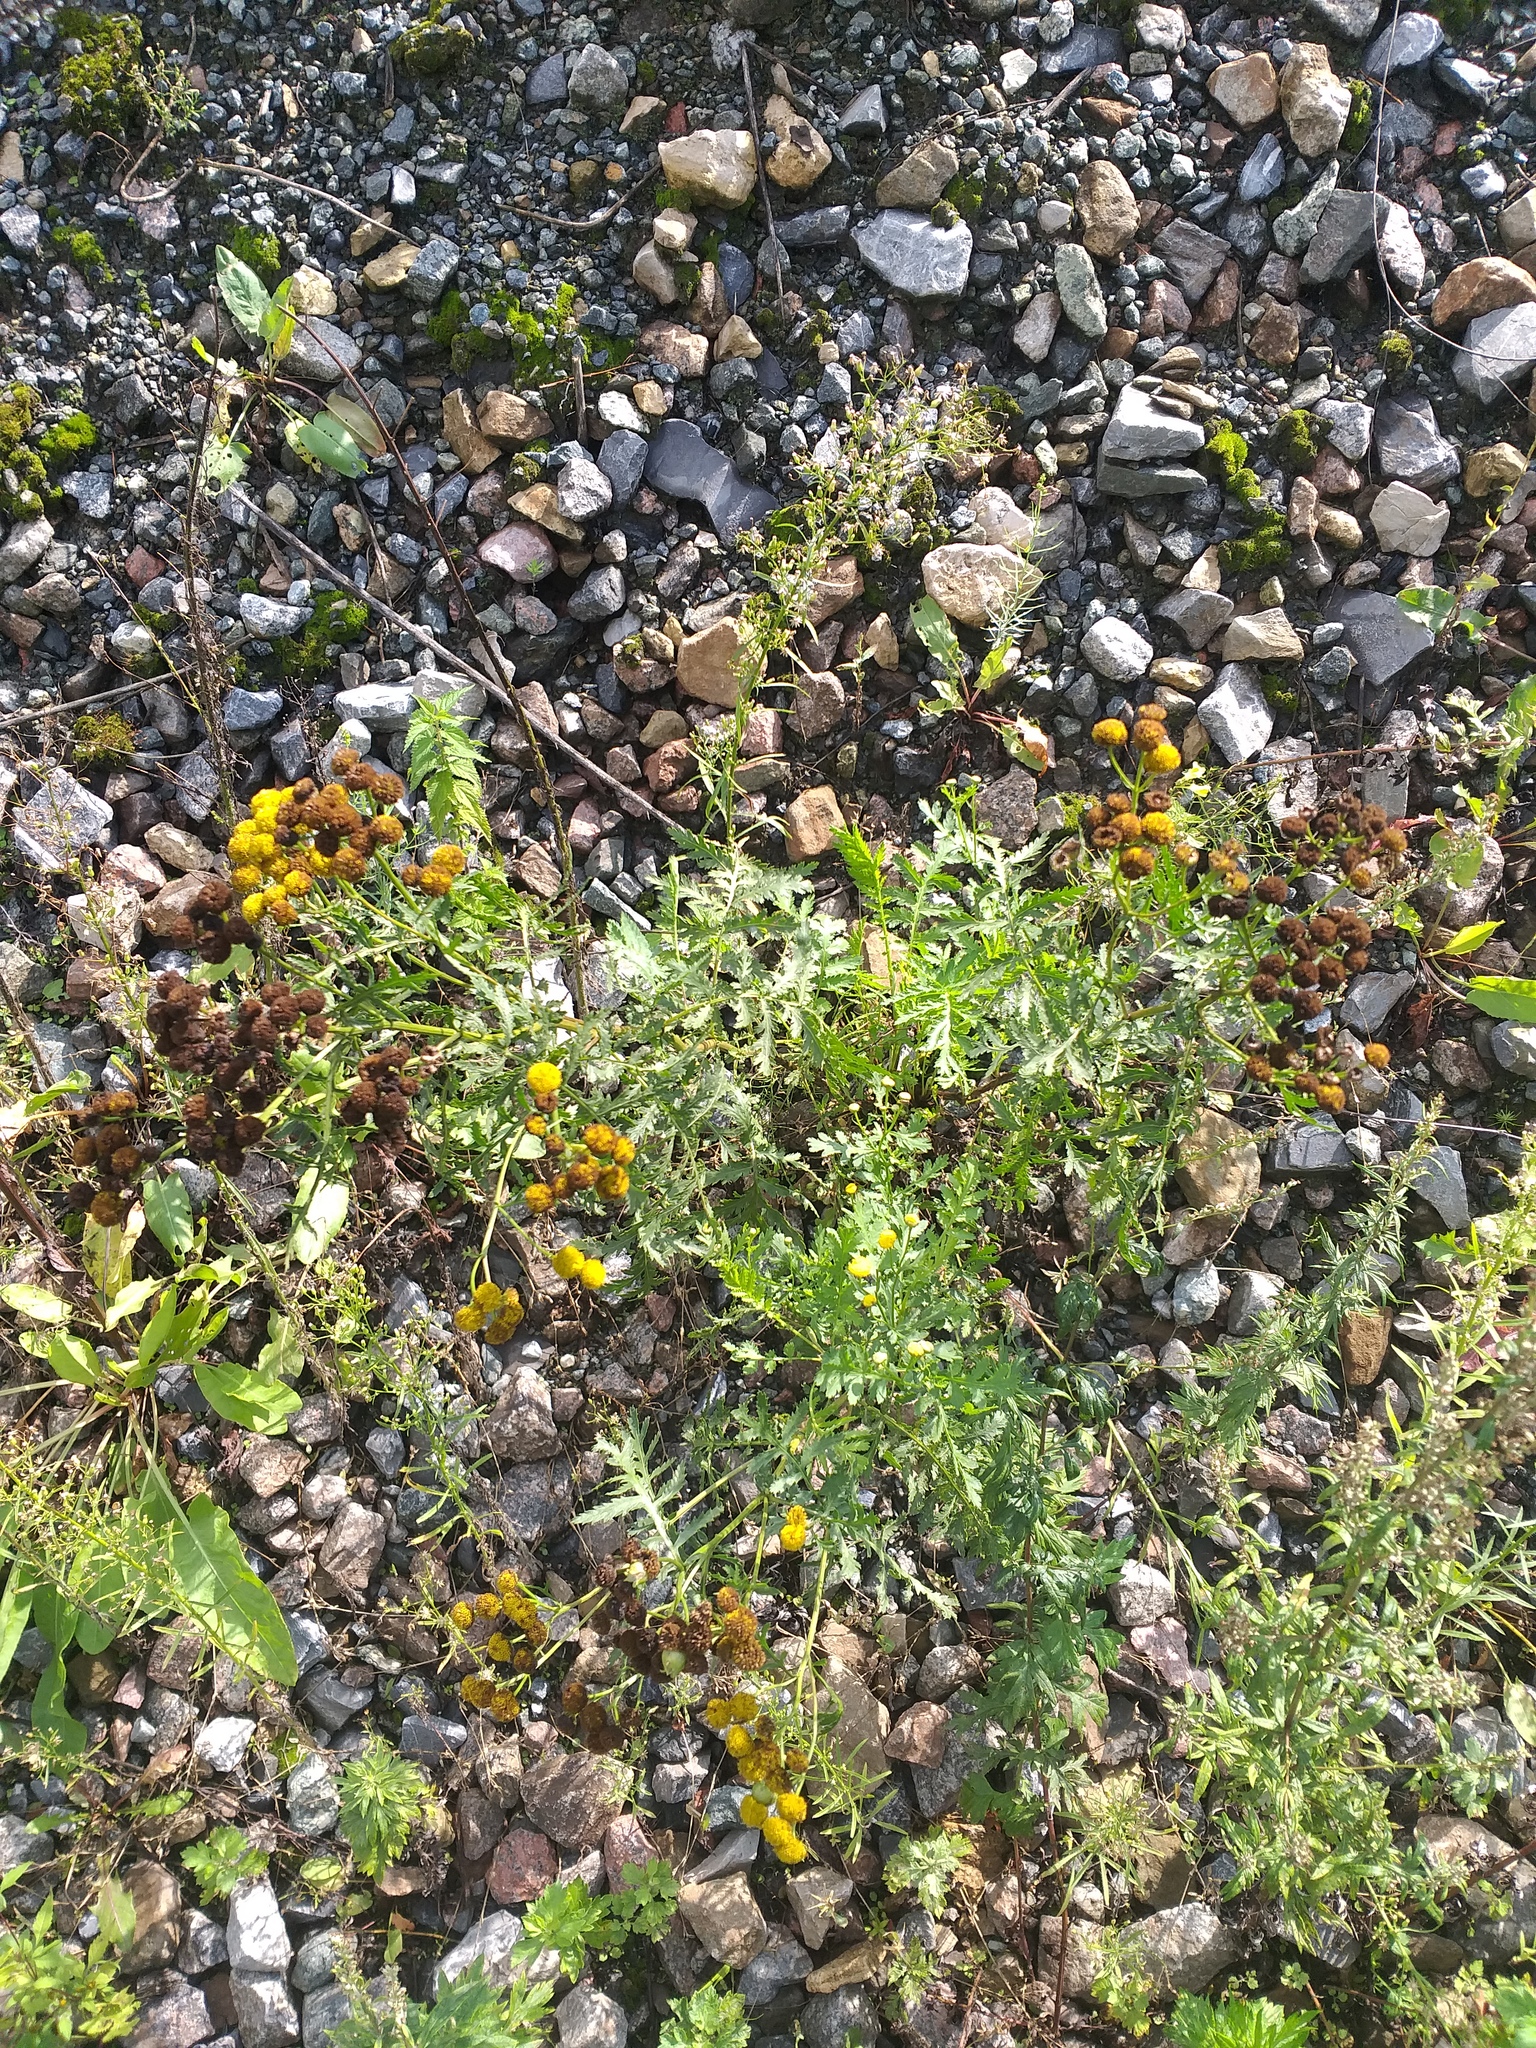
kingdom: Plantae
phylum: Tracheophyta
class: Magnoliopsida
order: Asterales
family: Asteraceae
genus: Tanacetum
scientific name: Tanacetum vulgare
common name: Common tansy
